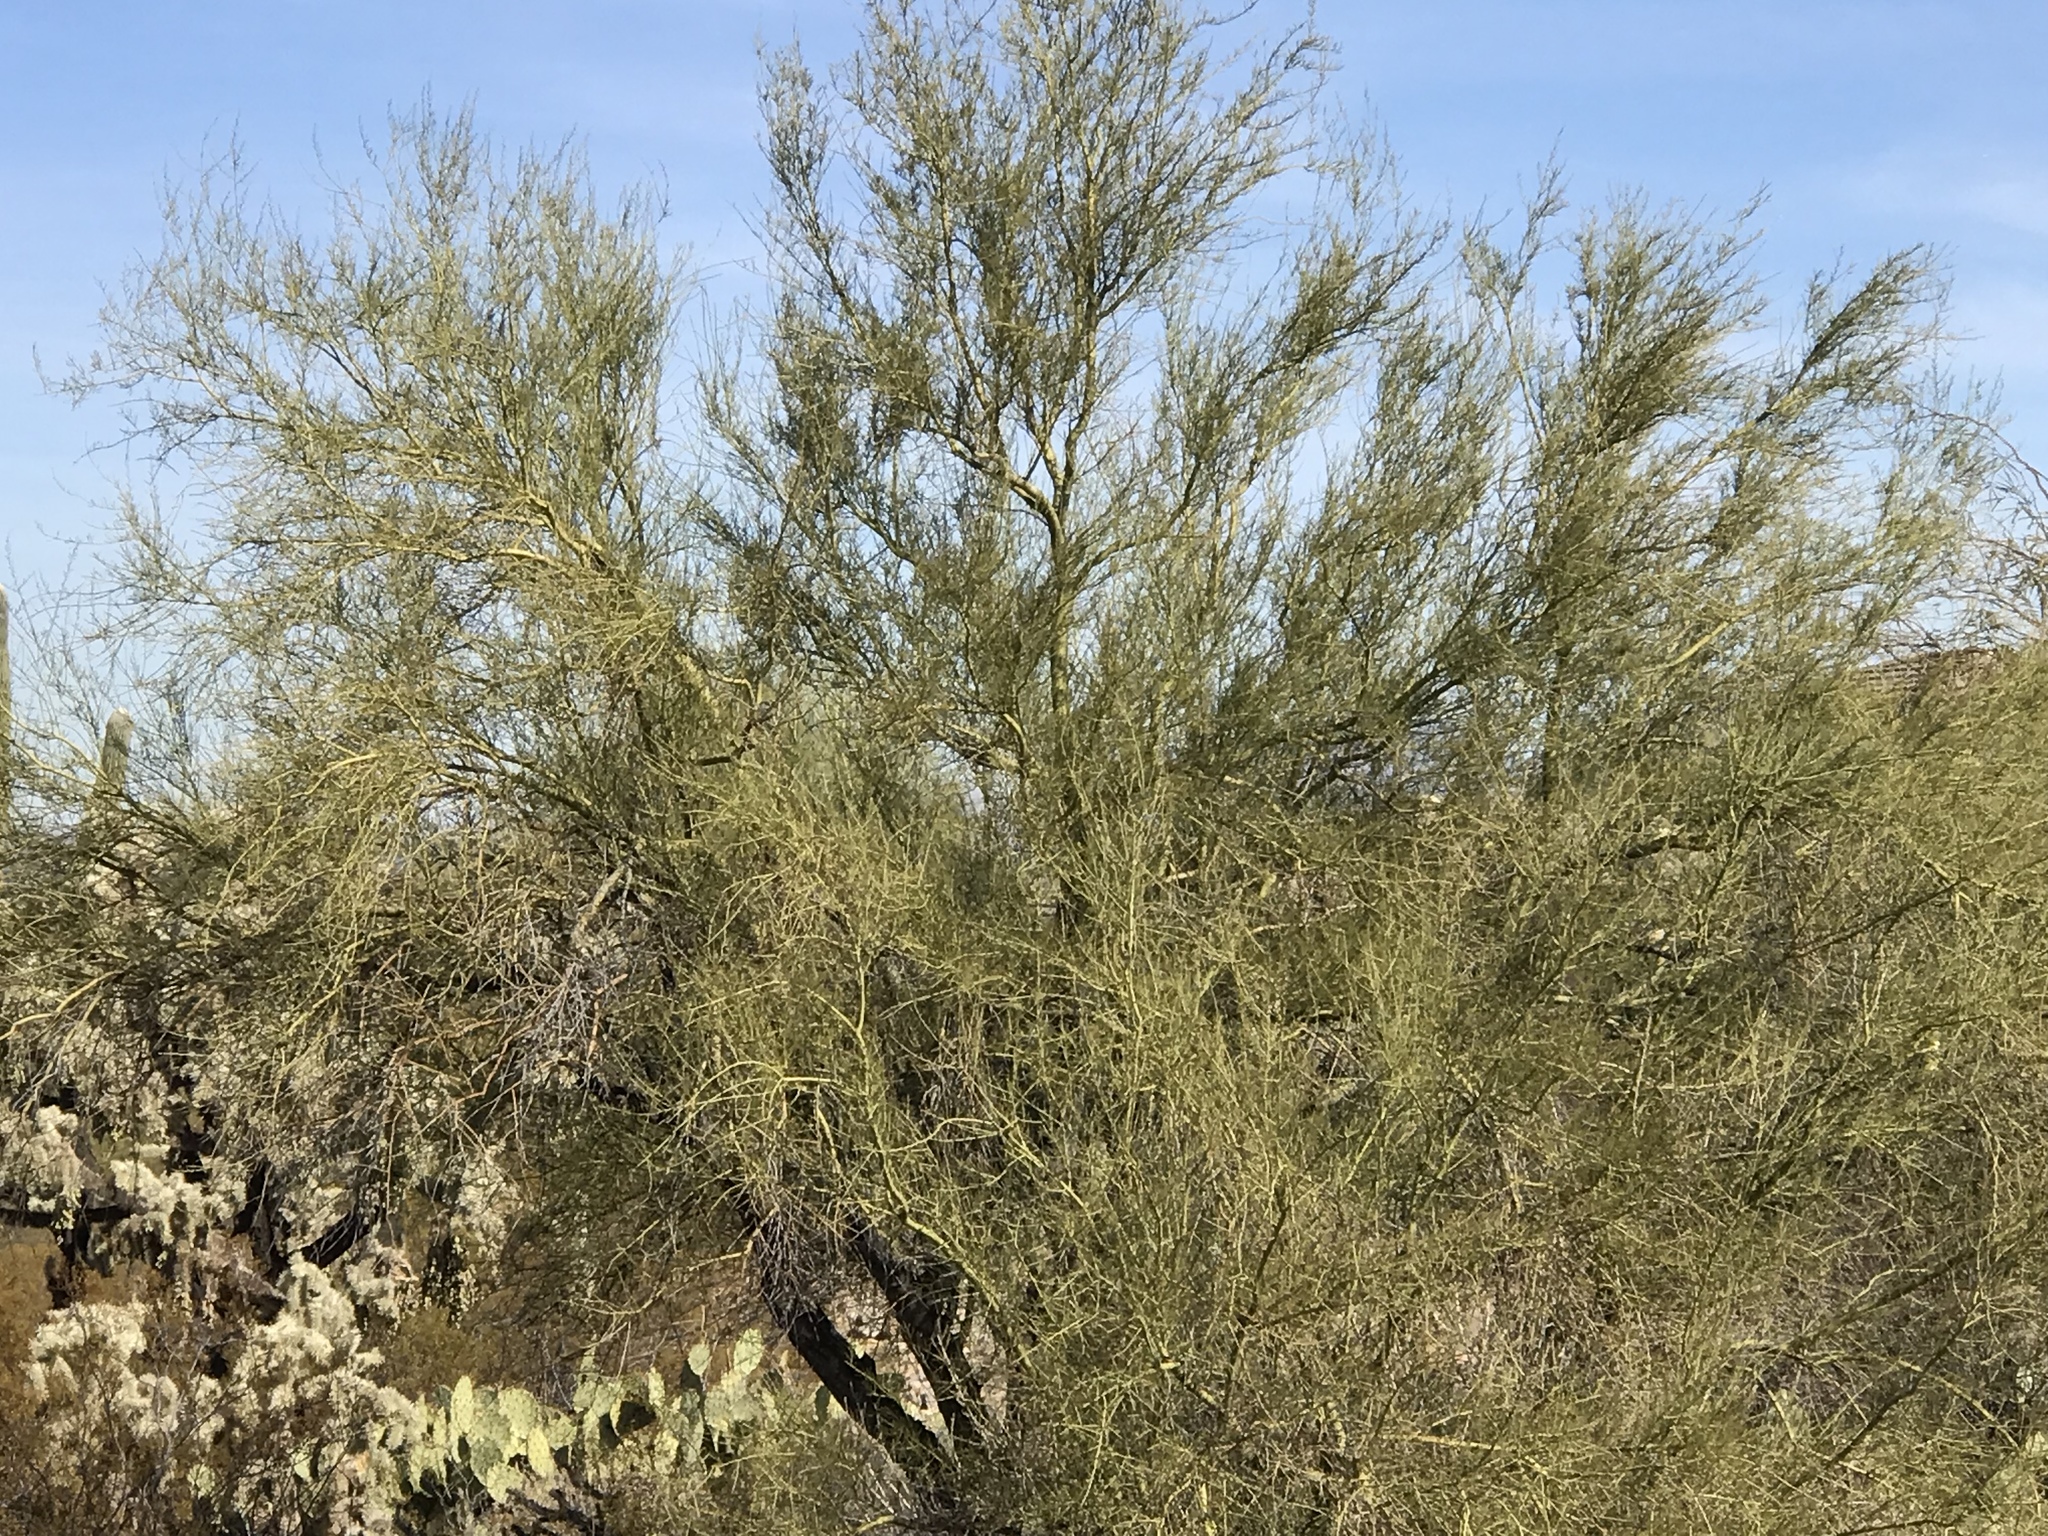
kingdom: Plantae
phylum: Tracheophyta
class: Magnoliopsida
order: Fabales
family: Fabaceae
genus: Parkinsonia
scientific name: Parkinsonia microphylla
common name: Yellow paloverde
